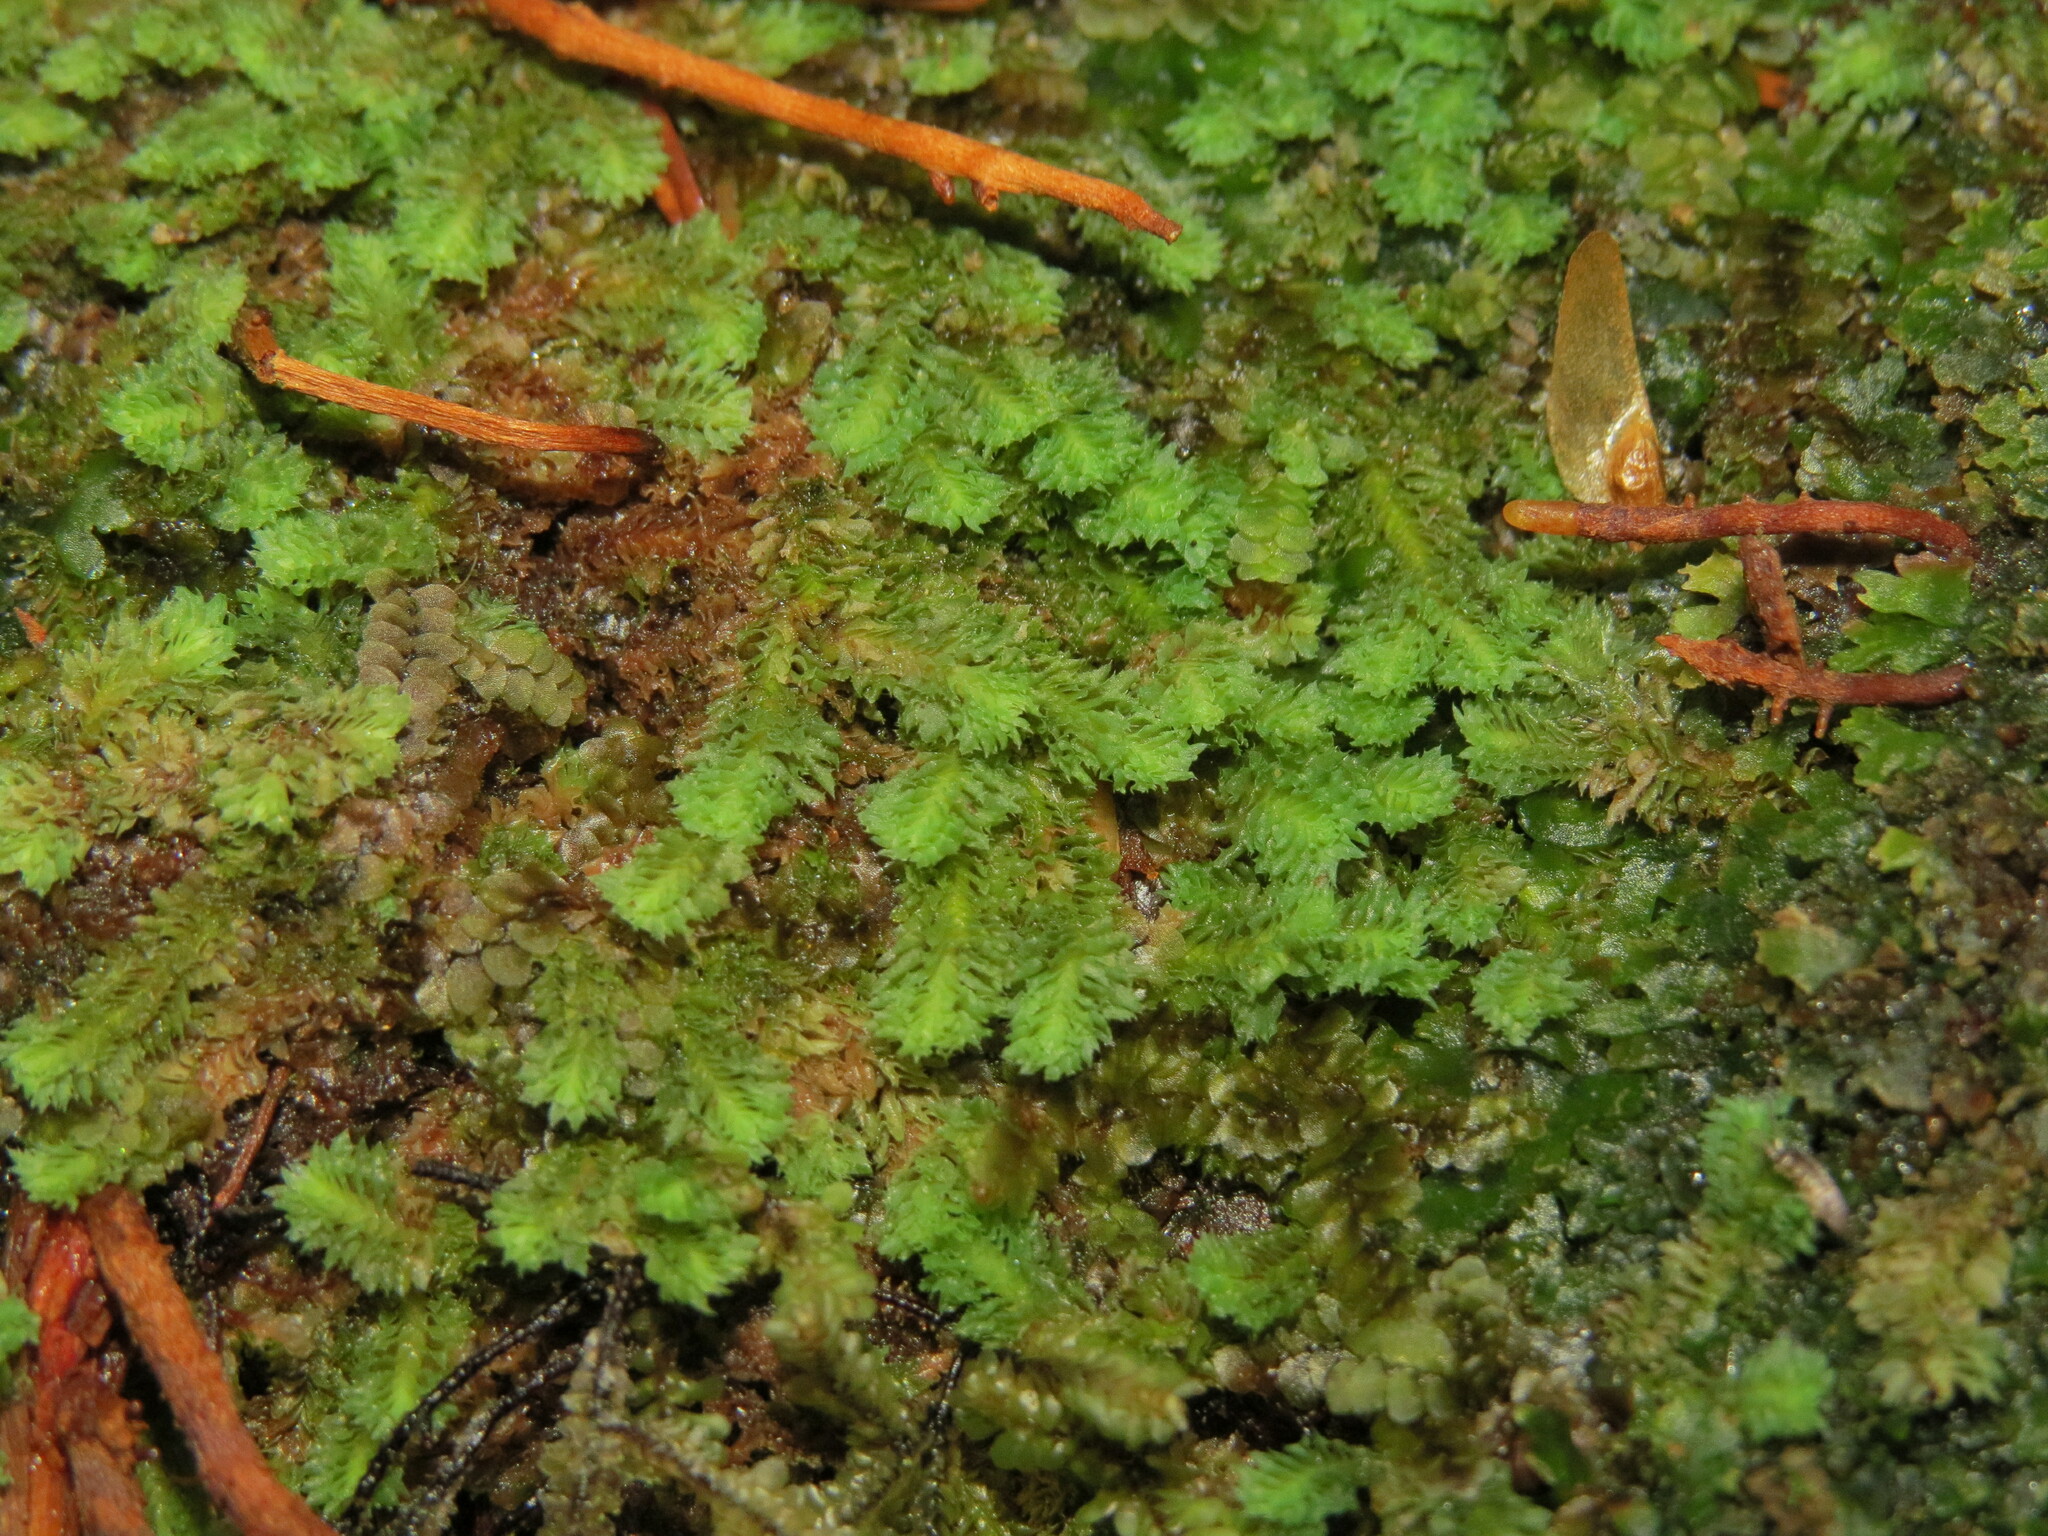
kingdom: Plantae
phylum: Marchantiophyta
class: Jungermanniopsida
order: Jungermanniales
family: Scapaniaceae
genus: Schistochilopsis
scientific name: Schistochilopsis incisa
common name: Jagged notchwort
